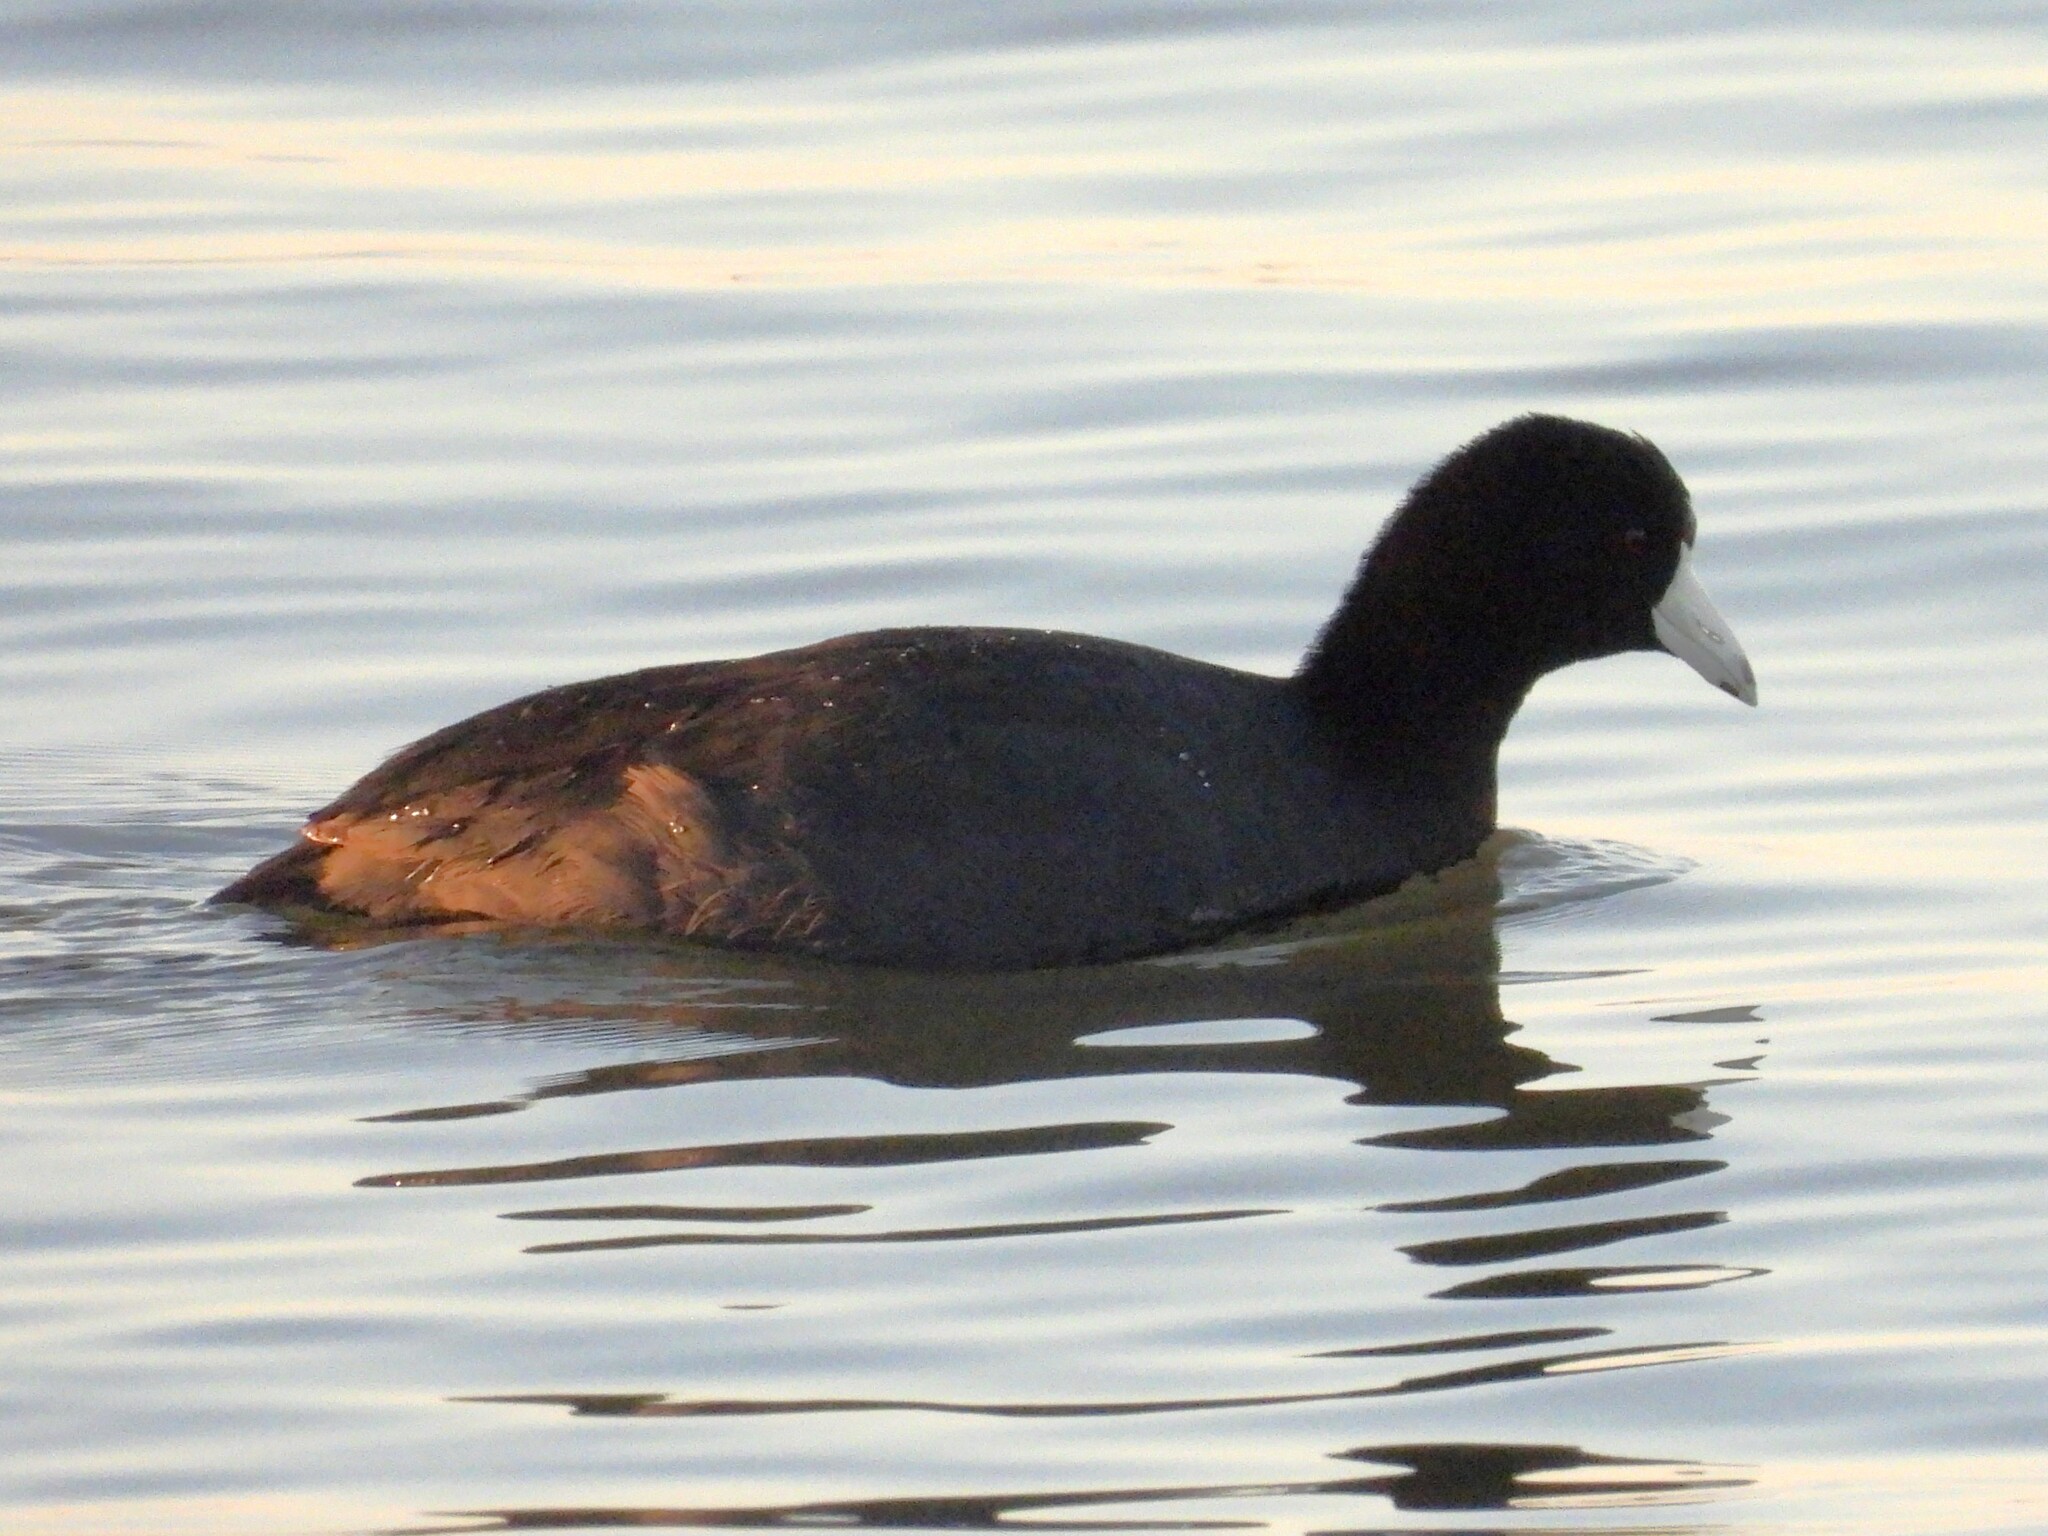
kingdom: Animalia
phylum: Chordata
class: Aves
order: Gruiformes
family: Rallidae
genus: Fulica
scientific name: Fulica americana
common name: American coot
